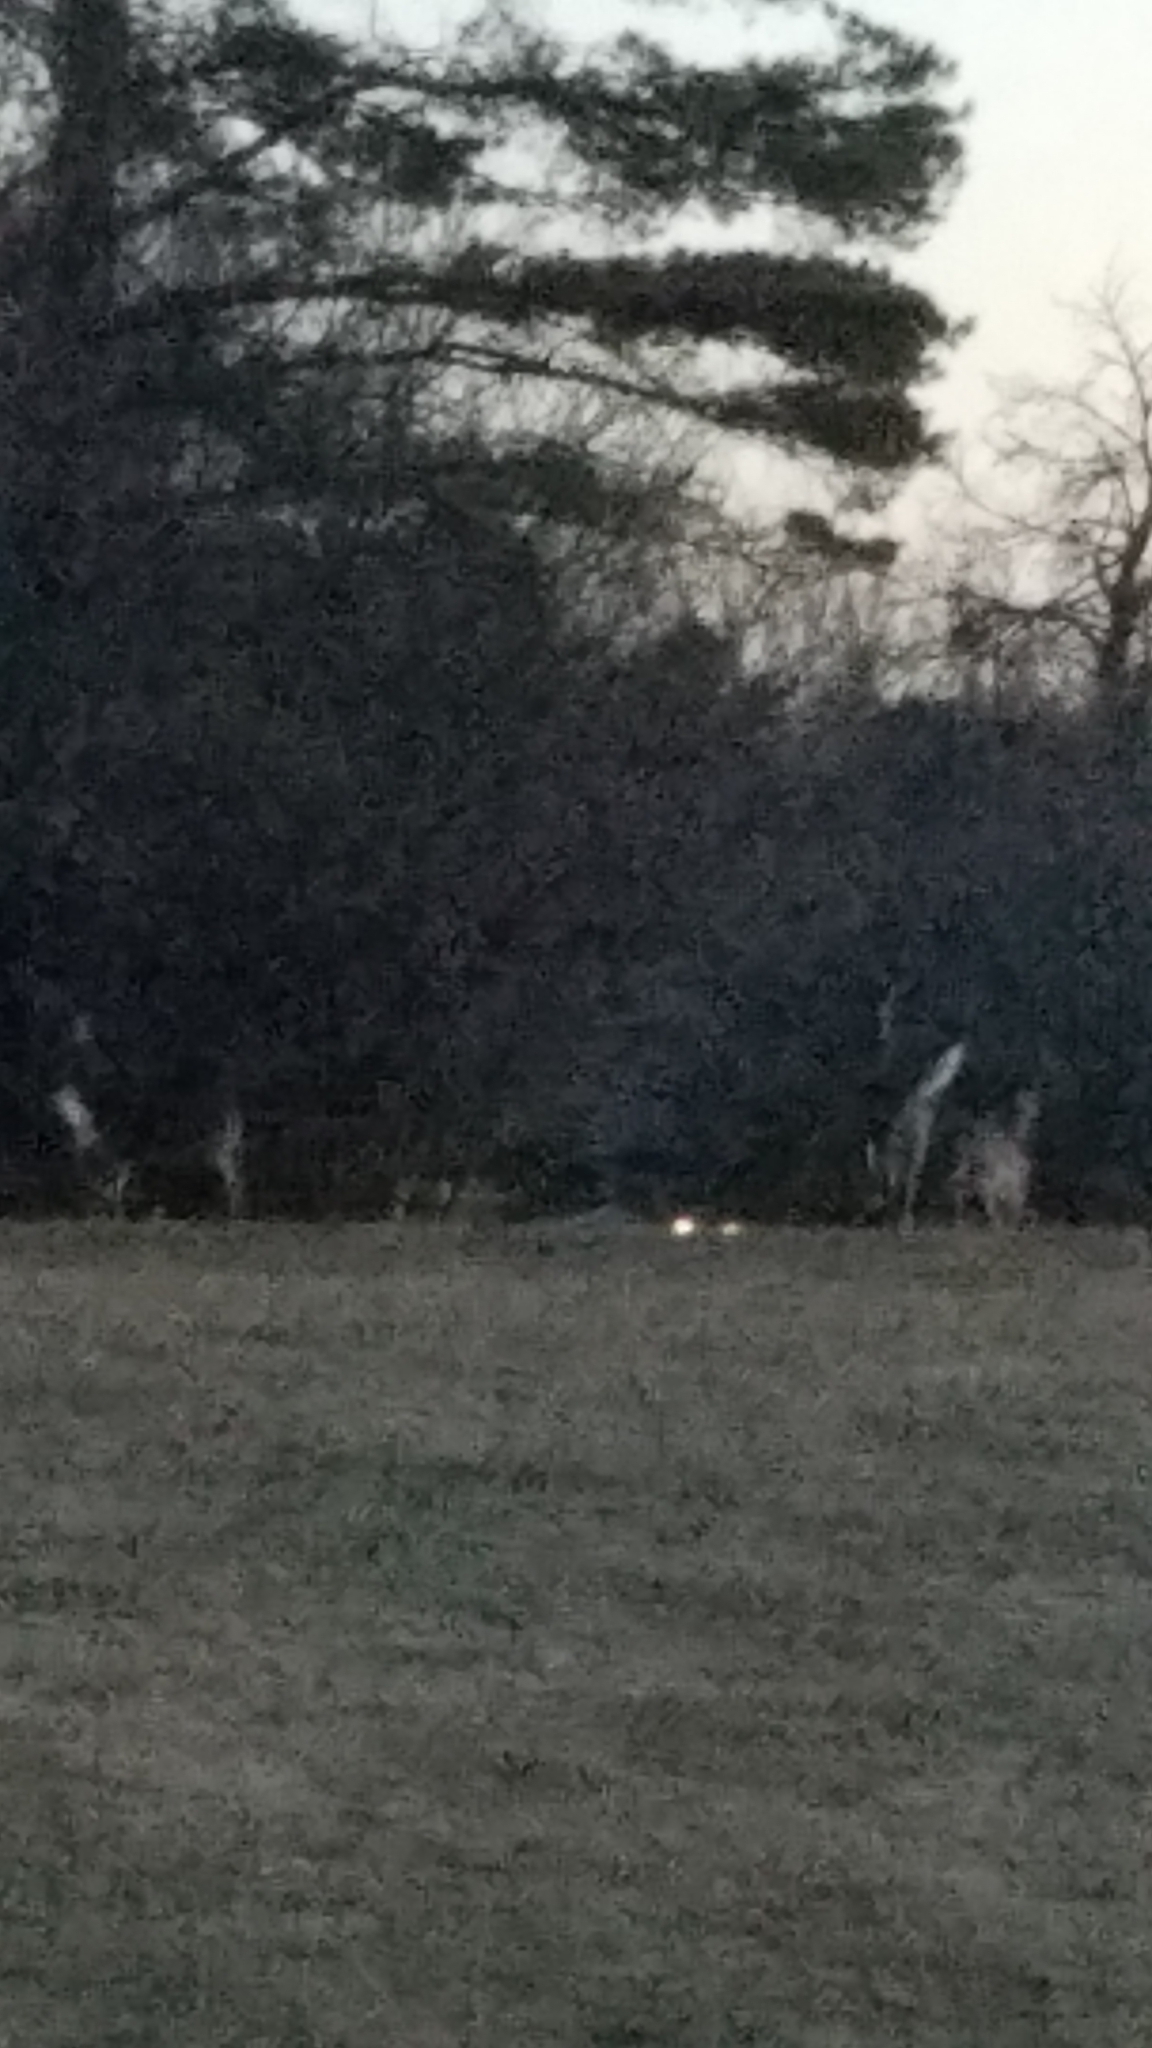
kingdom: Animalia
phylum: Chordata
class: Mammalia
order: Artiodactyla
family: Cervidae
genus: Odocoileus
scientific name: Odocoileus virginianus
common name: White-tailed deer
